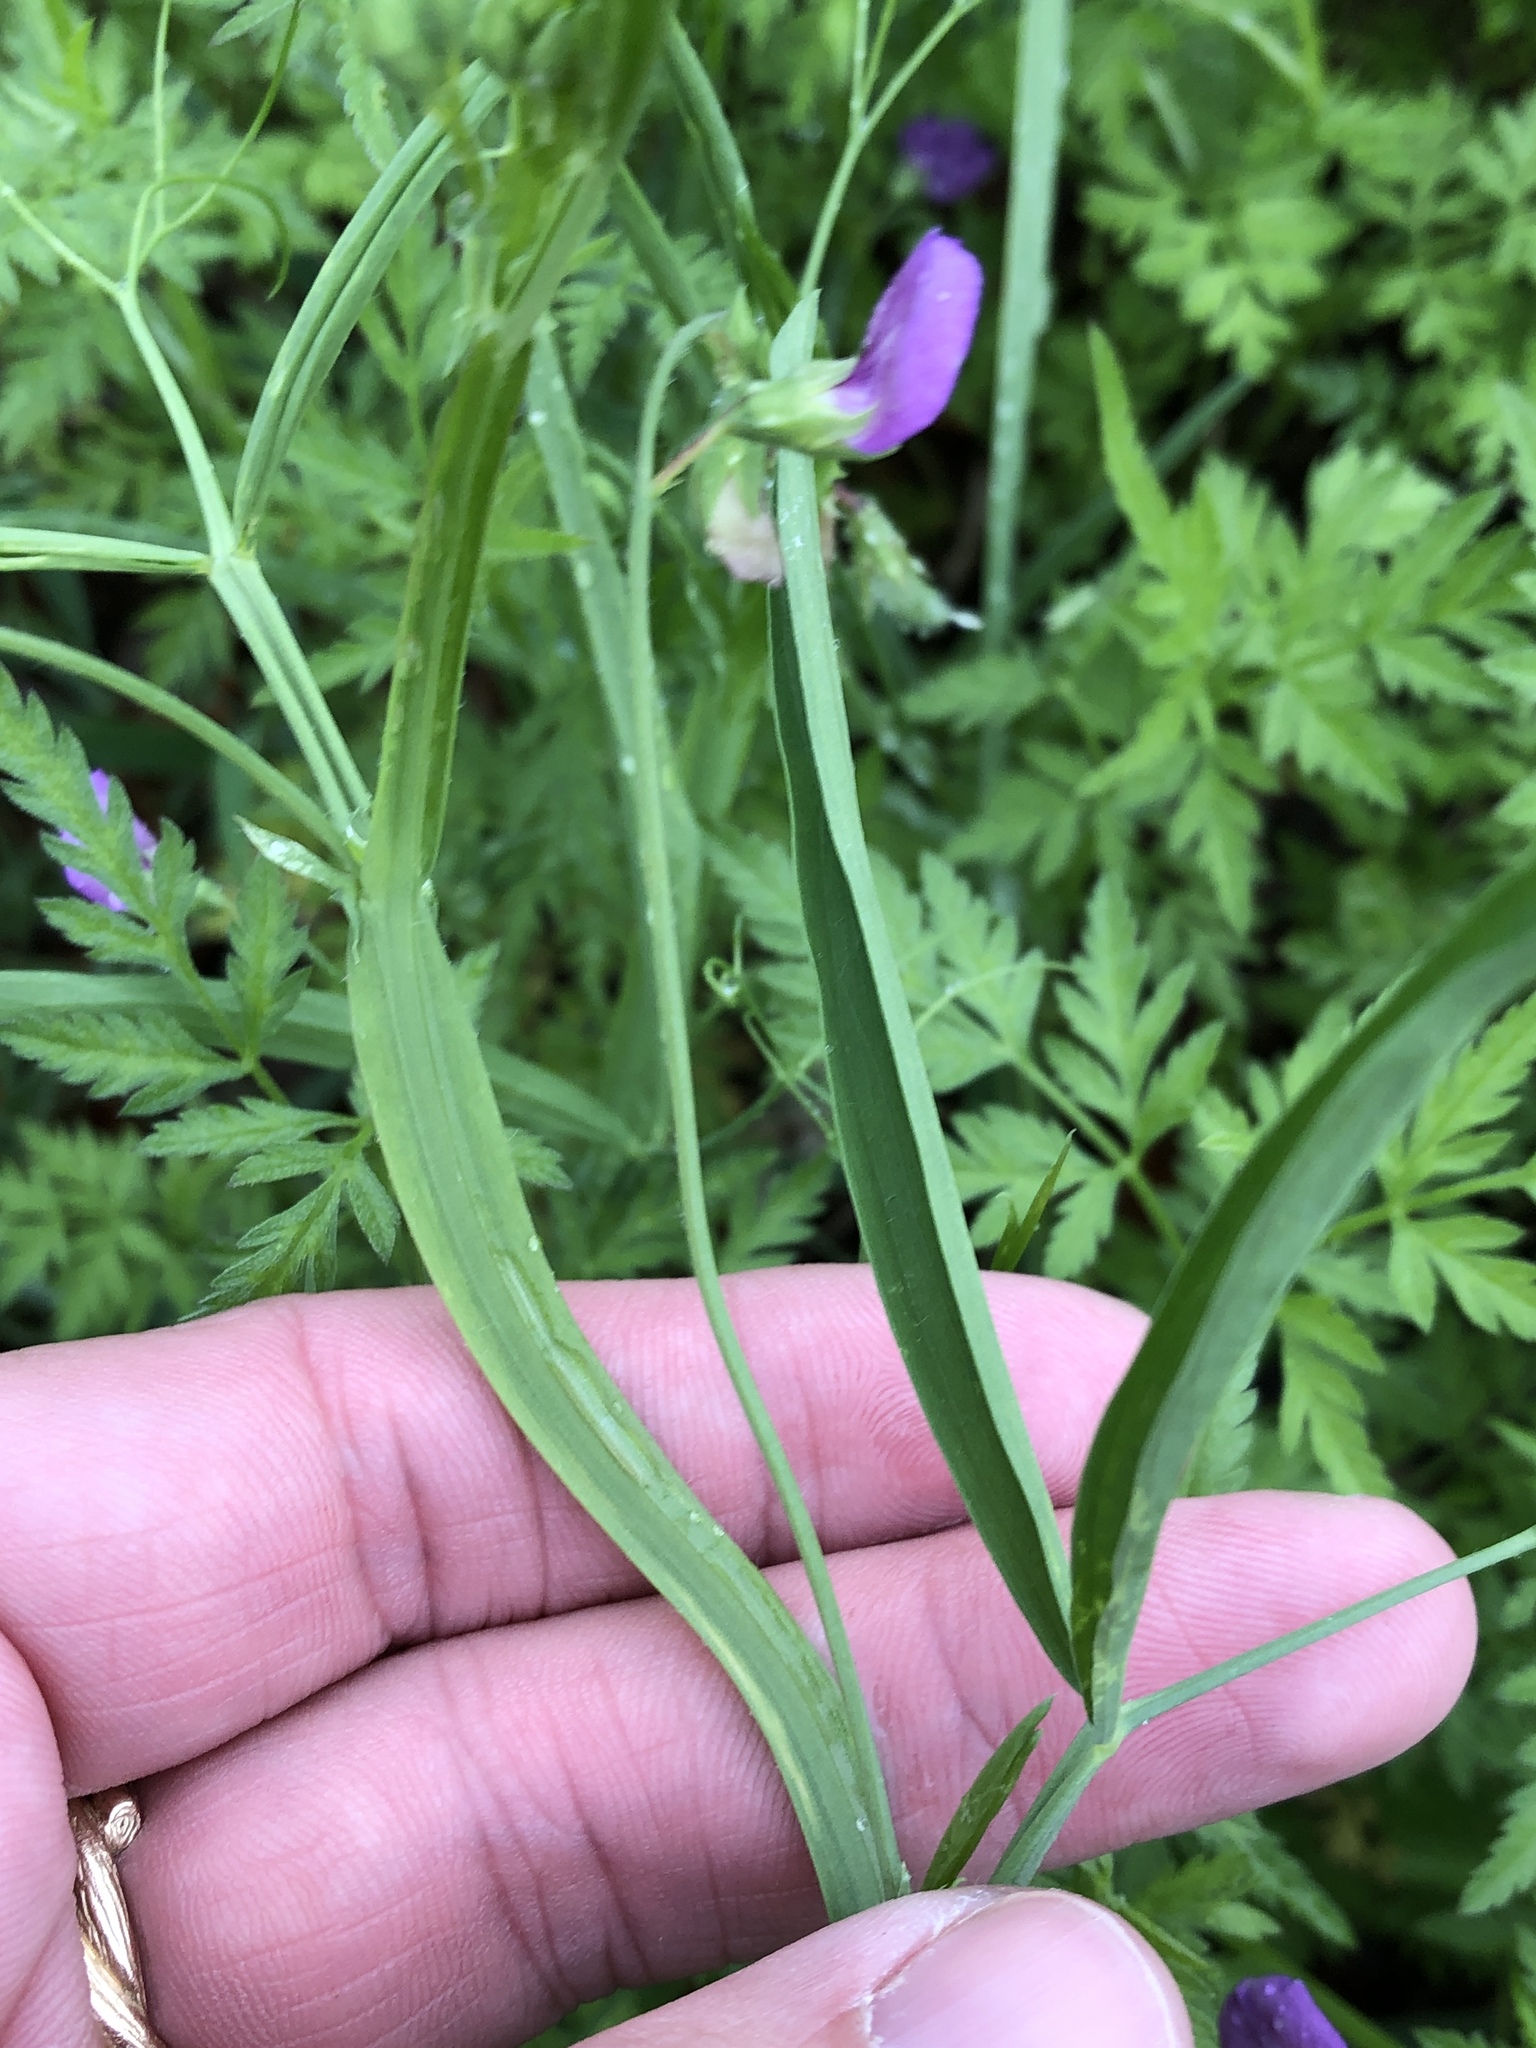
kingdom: Plantae
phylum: Tracheophyta
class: Magnoliopsida
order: Fabales
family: Fabaceae
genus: Lathyrus
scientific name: Lathyrus hirsutus
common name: Hairy vetchling
